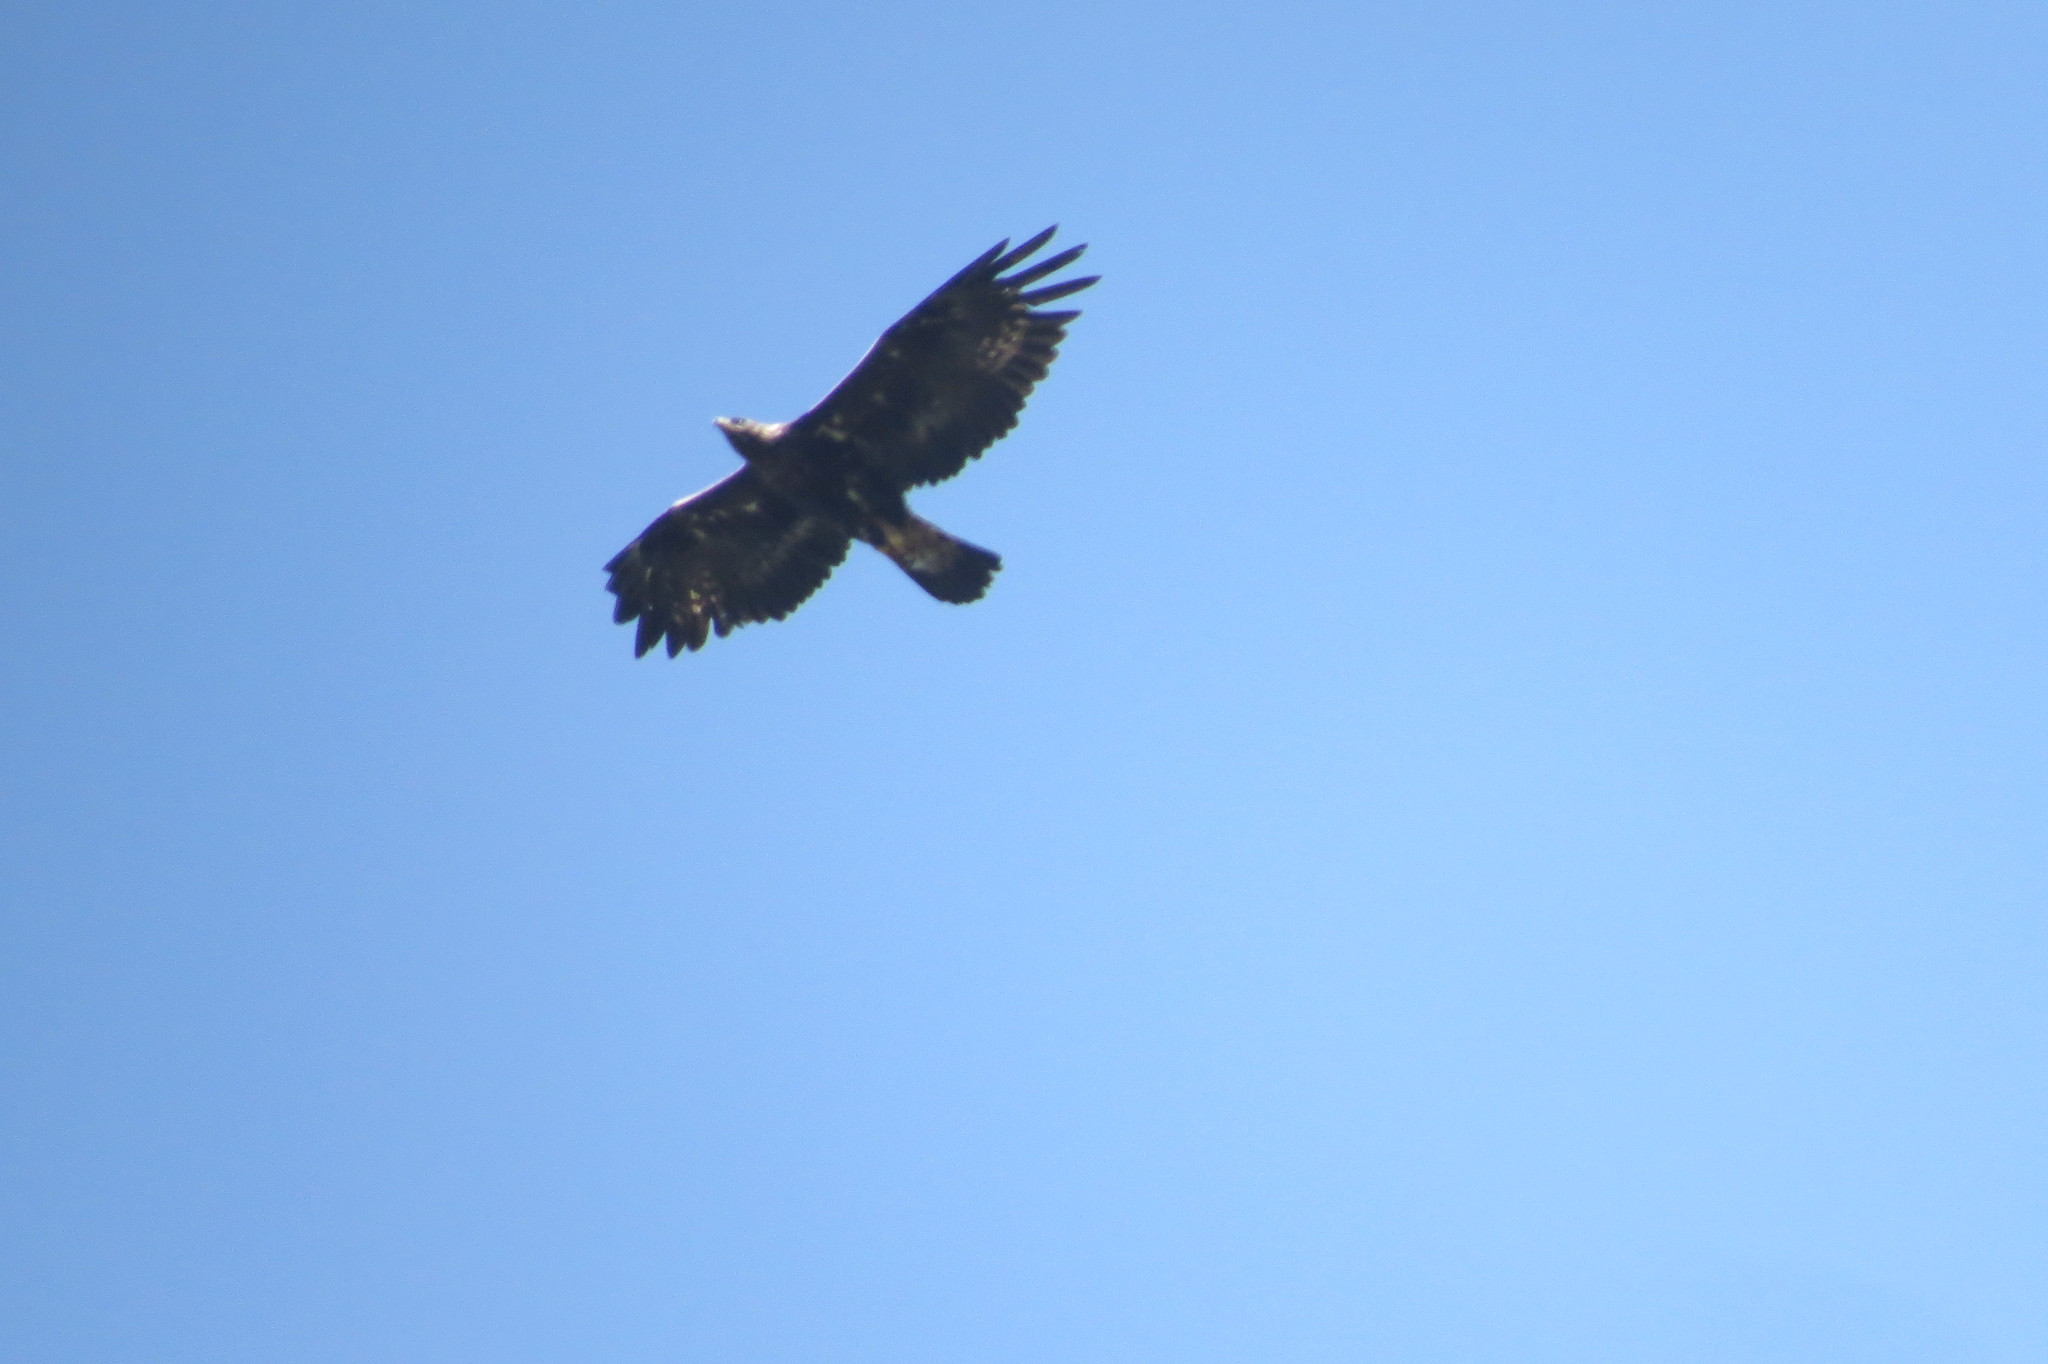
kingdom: Animalia
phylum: Chordata
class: Aves
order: Accipitriformes
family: Accipitridae
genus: Aquila
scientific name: Aquila chrysaetos
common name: Golden eagle
